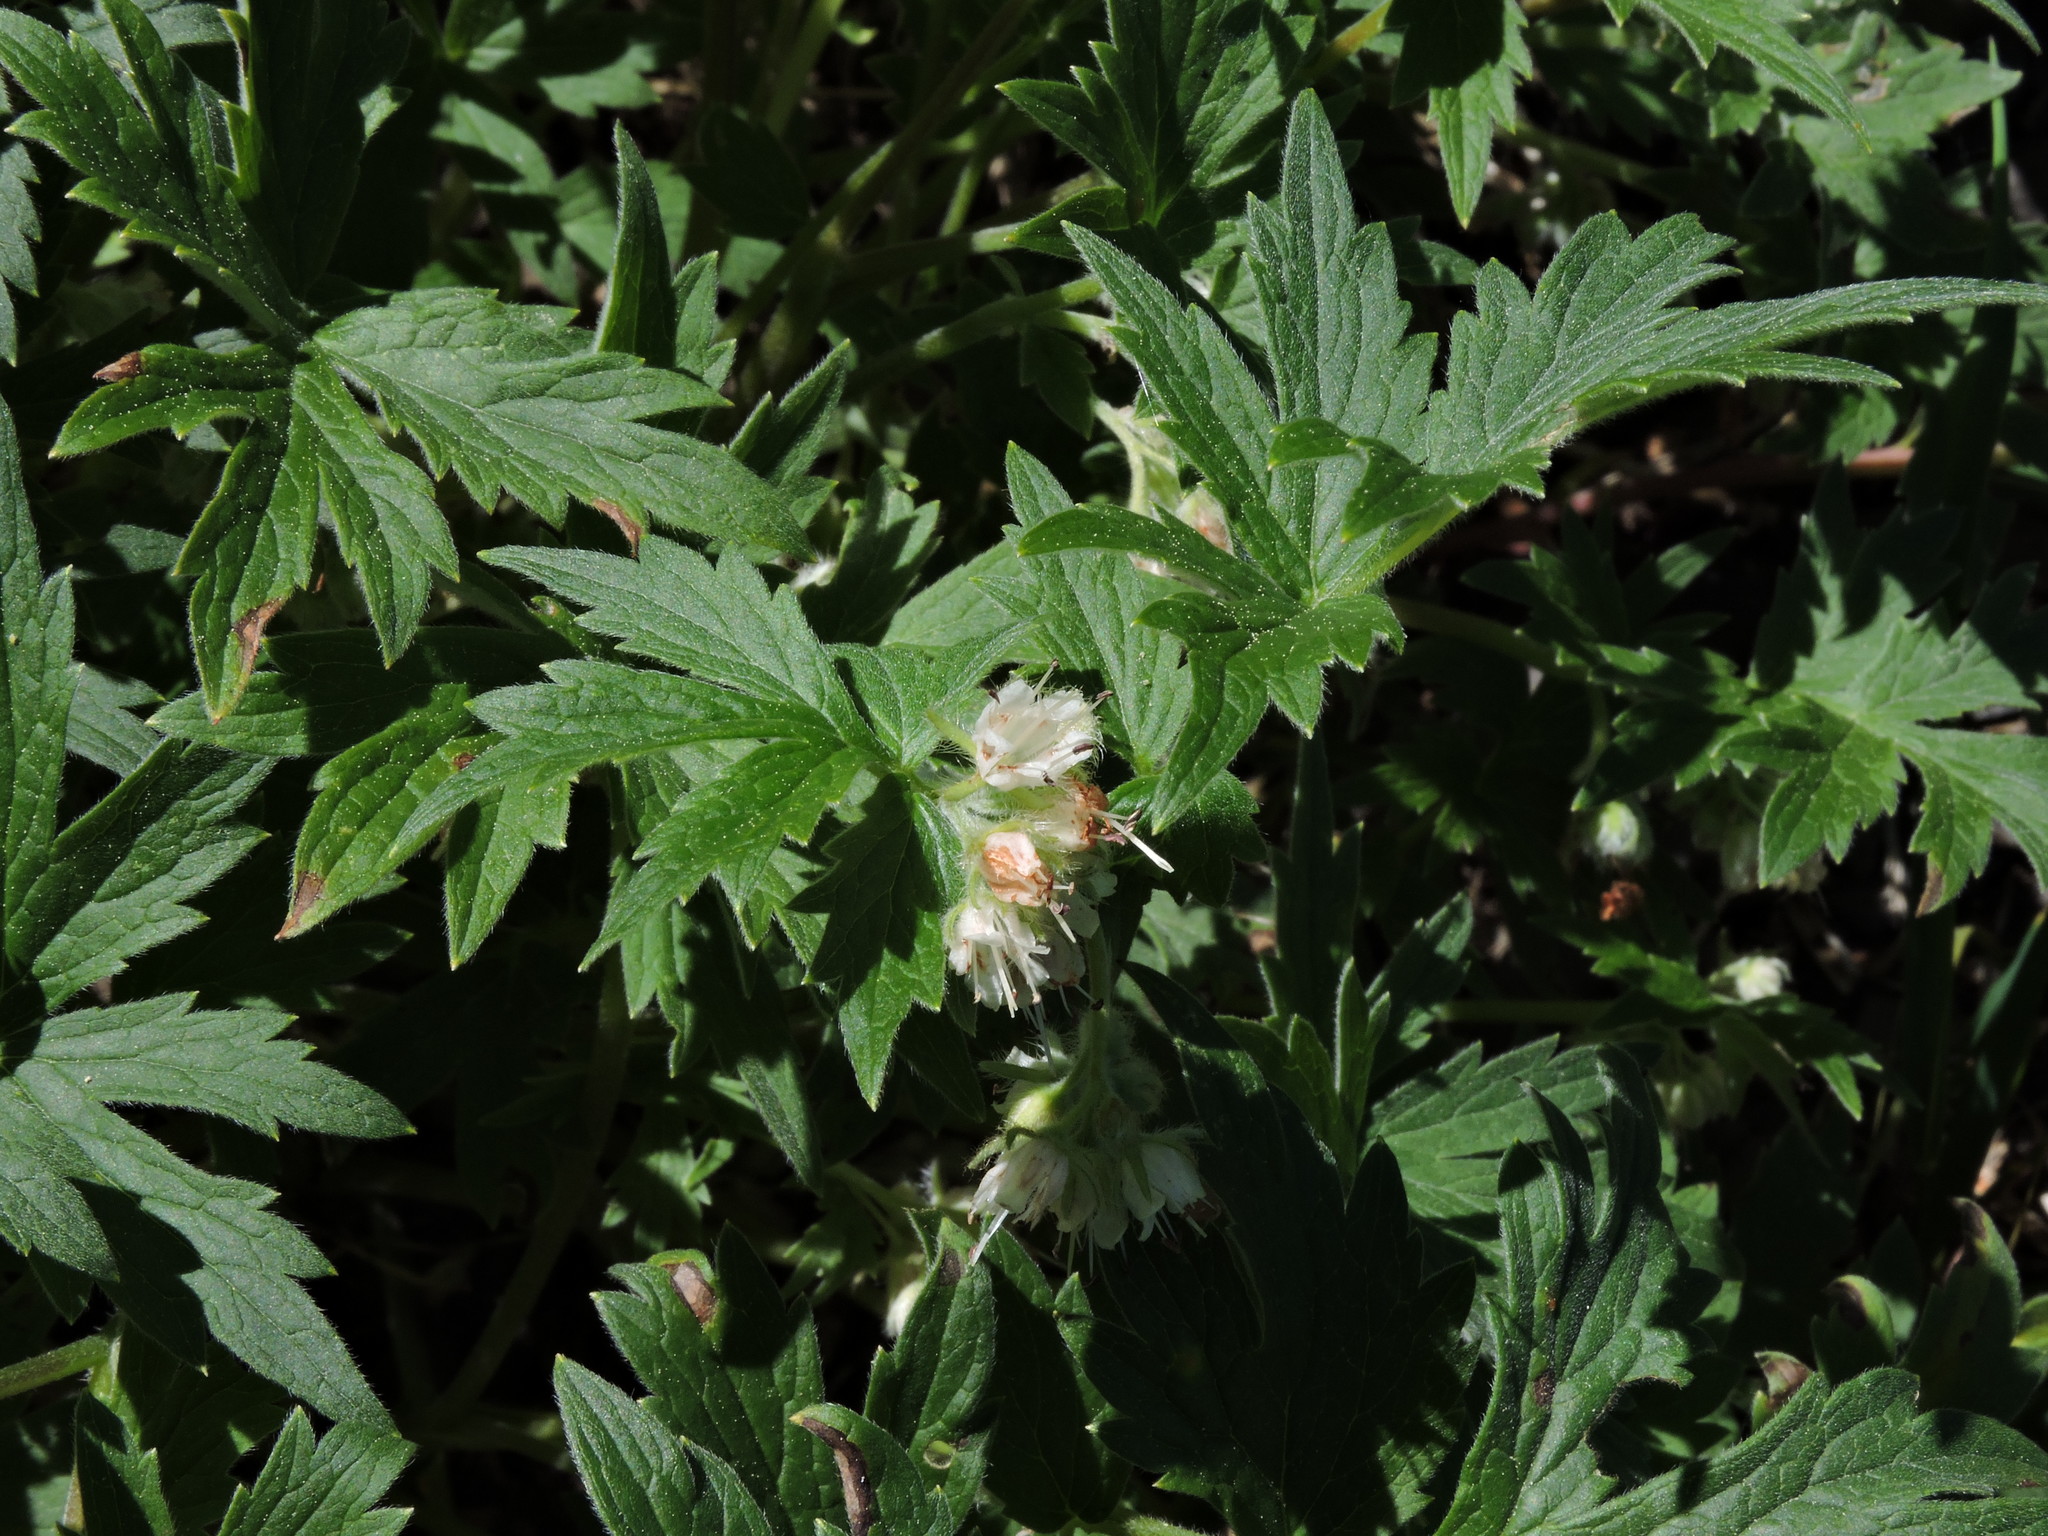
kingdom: Plantae
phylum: Tracheophyta
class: Magnoliopsida
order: Boraginales
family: Hydrophyllaceae
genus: Hydrophyllum
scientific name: Hydrophyllum fendleri
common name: Fendler's waterleaf
